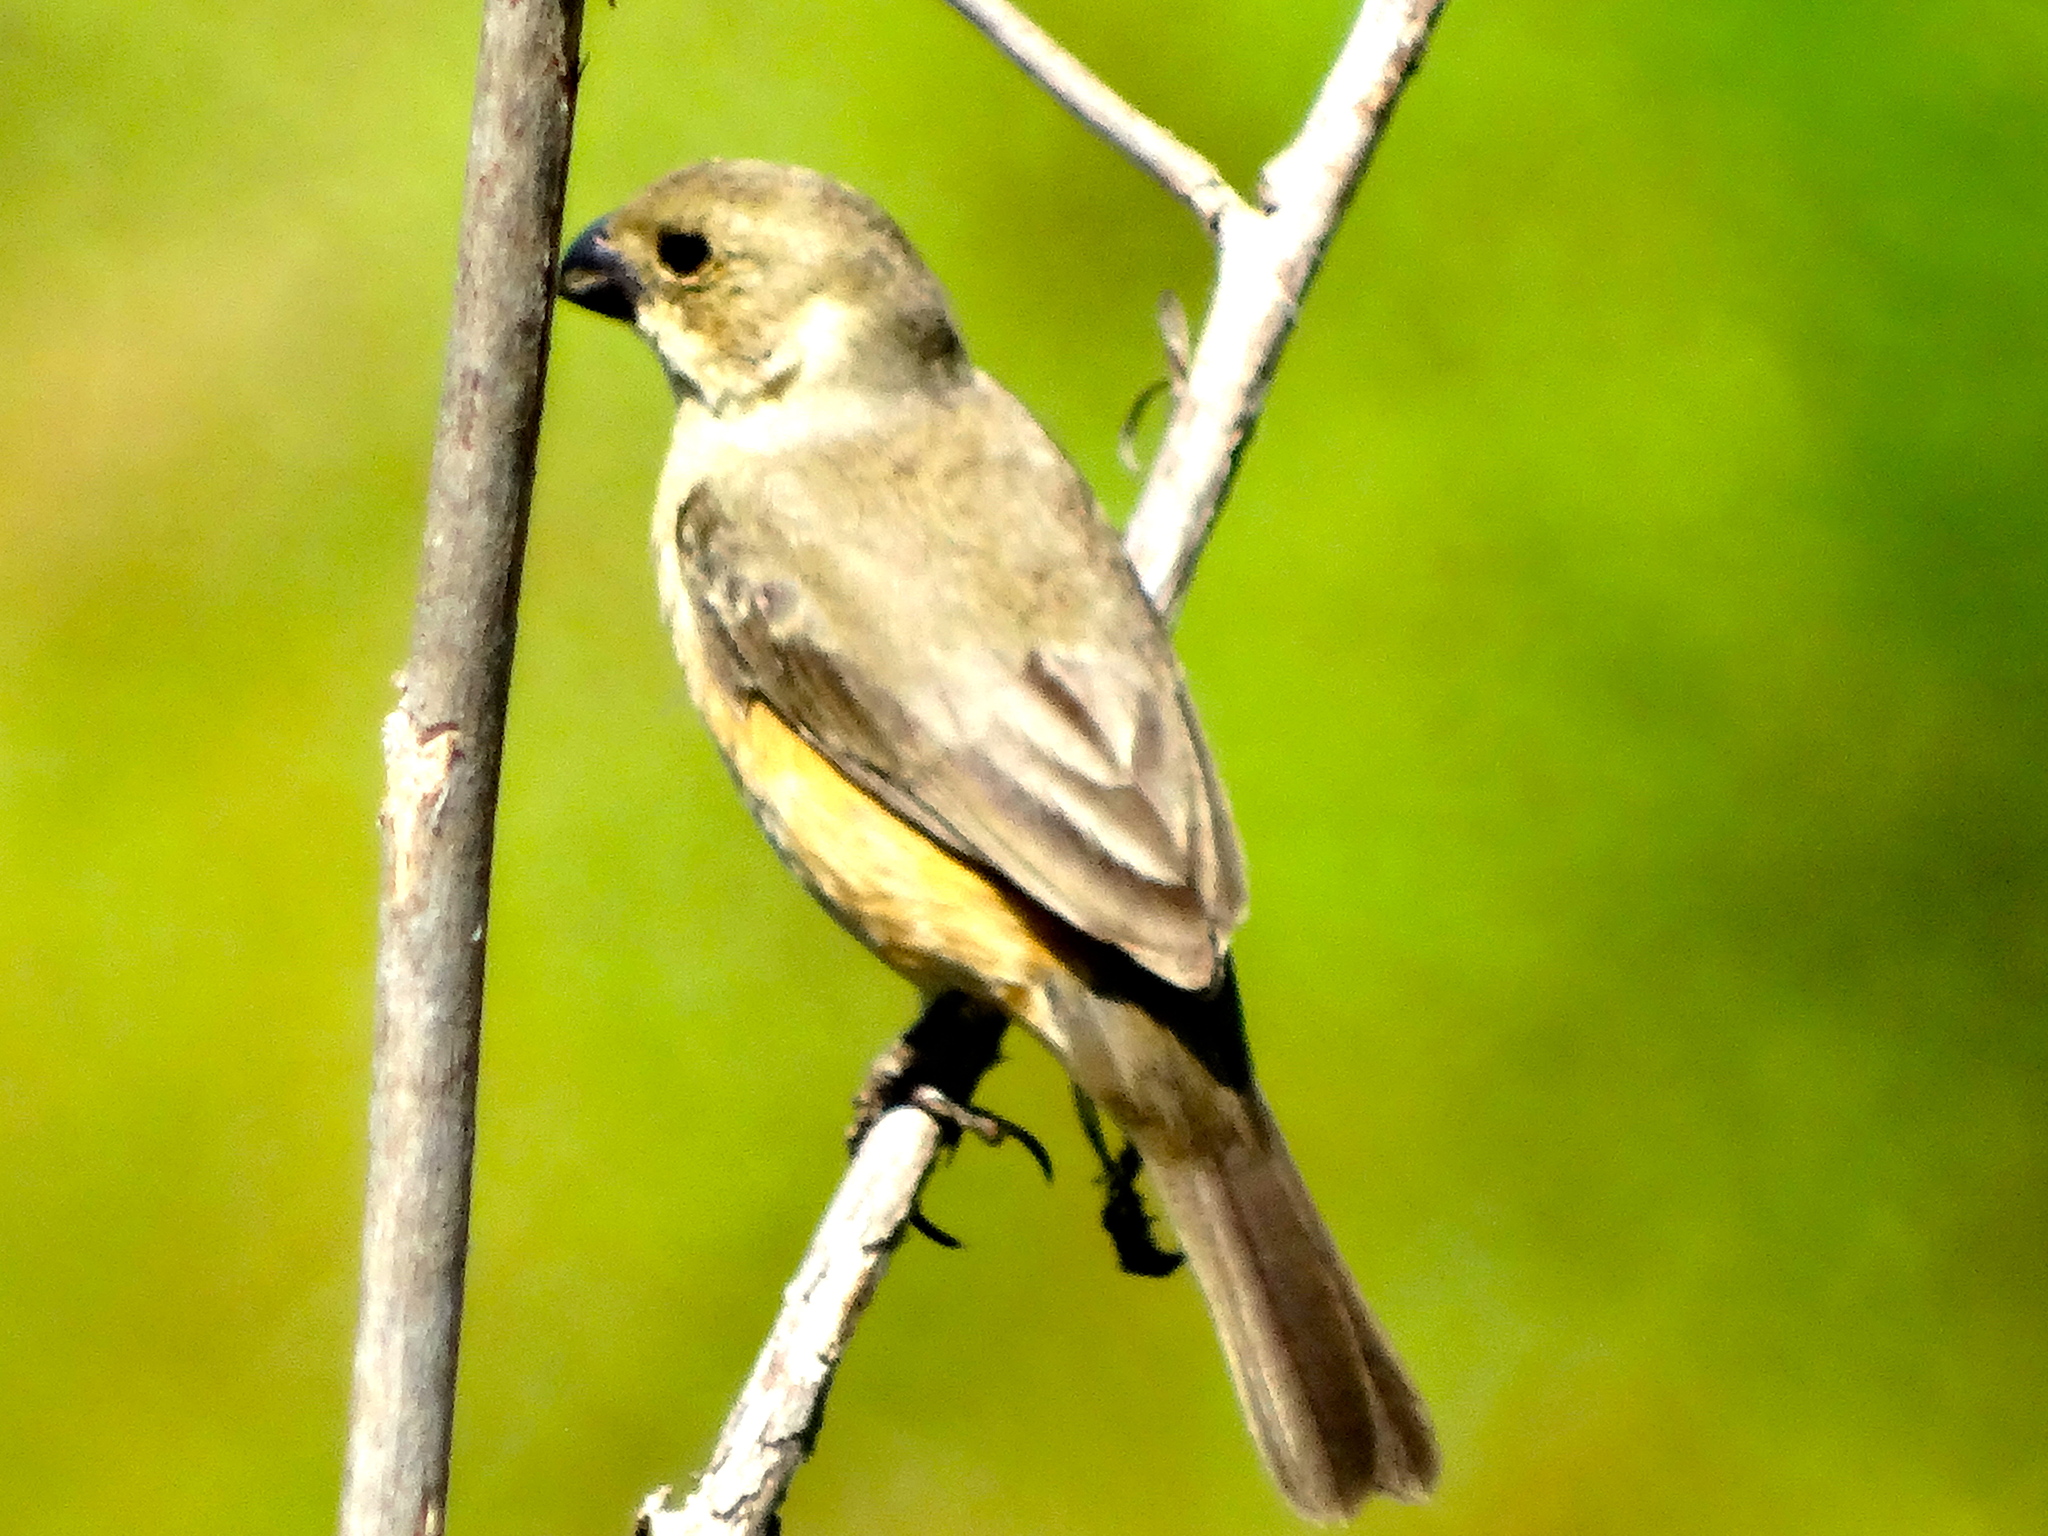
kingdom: Animalia
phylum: Chordata
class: Aves
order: Passeriformes
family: Thraupidae
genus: Sporophila
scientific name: Sporophila torqueola
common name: White-collared seedeater
